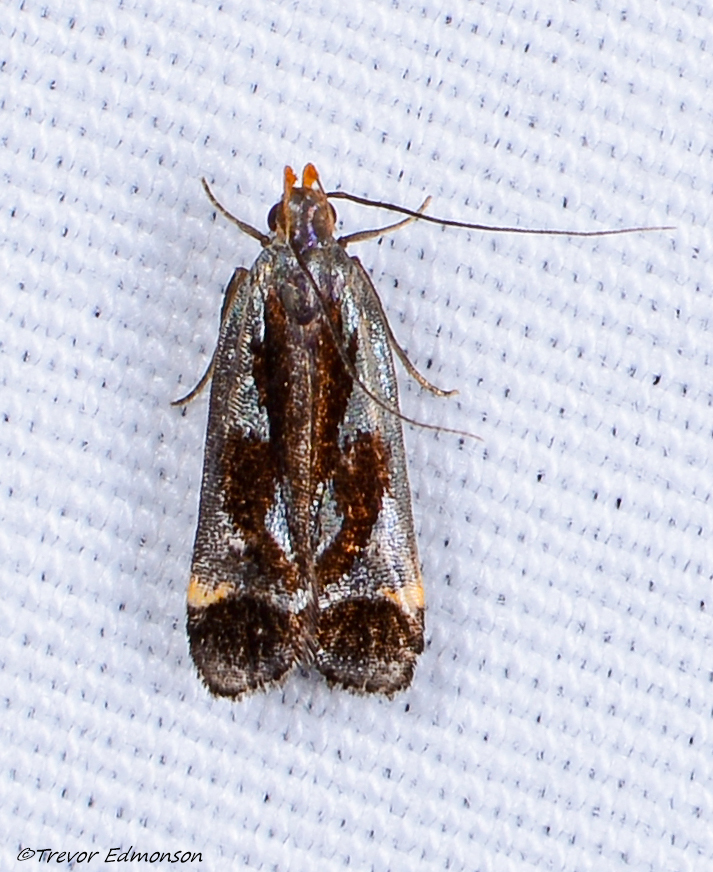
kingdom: Animalia
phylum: Arthropoda
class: Insecta
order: Lepidoptera
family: Gelechiidae
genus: Dichomeris
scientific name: Dichomeris ochripalpella
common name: Shining dichomeris moth
